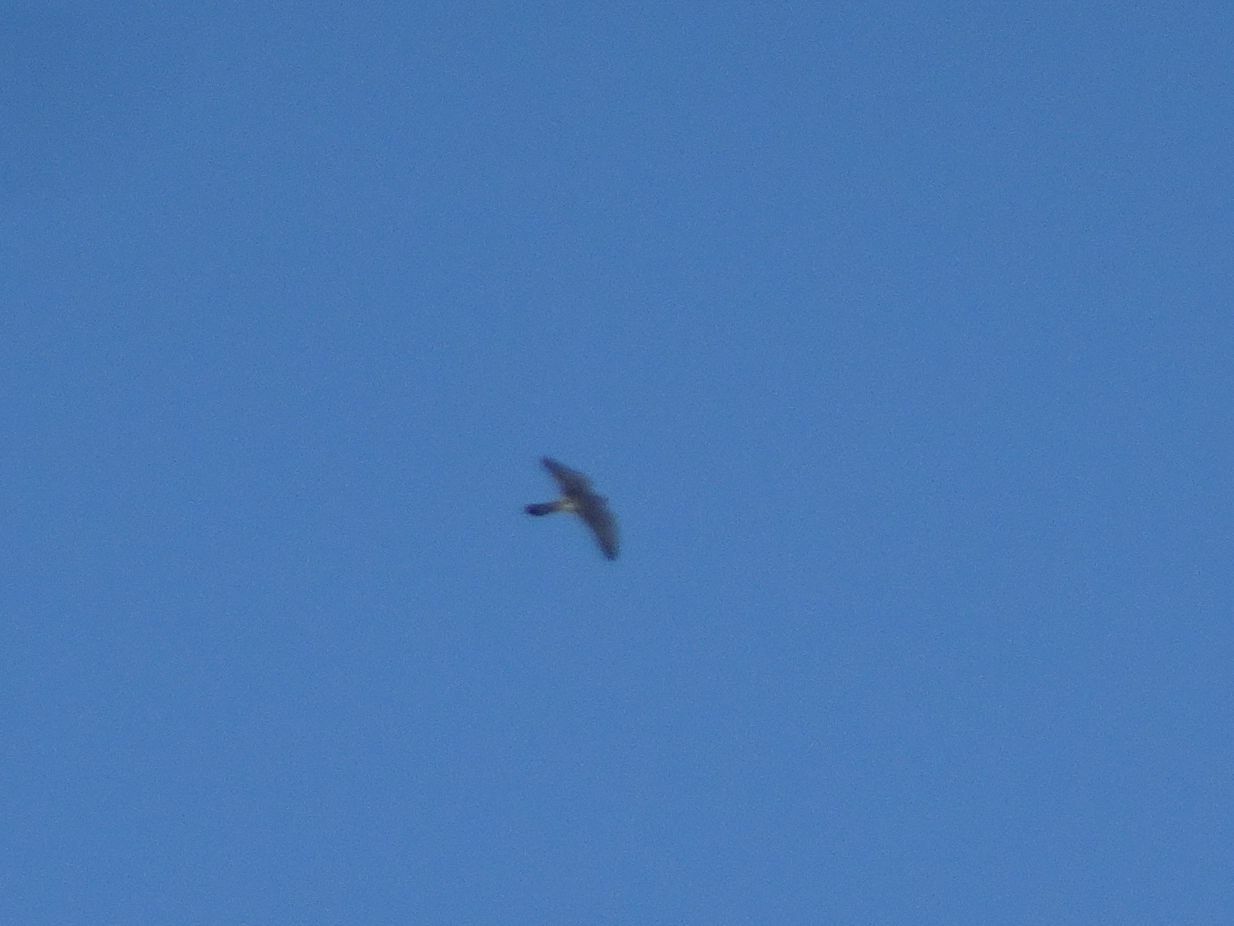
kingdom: Animalia
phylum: Chordata
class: Aves
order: Falconiformes
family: Falconidae
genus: Falco
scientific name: Falco tinnunculus
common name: Common kestrel
